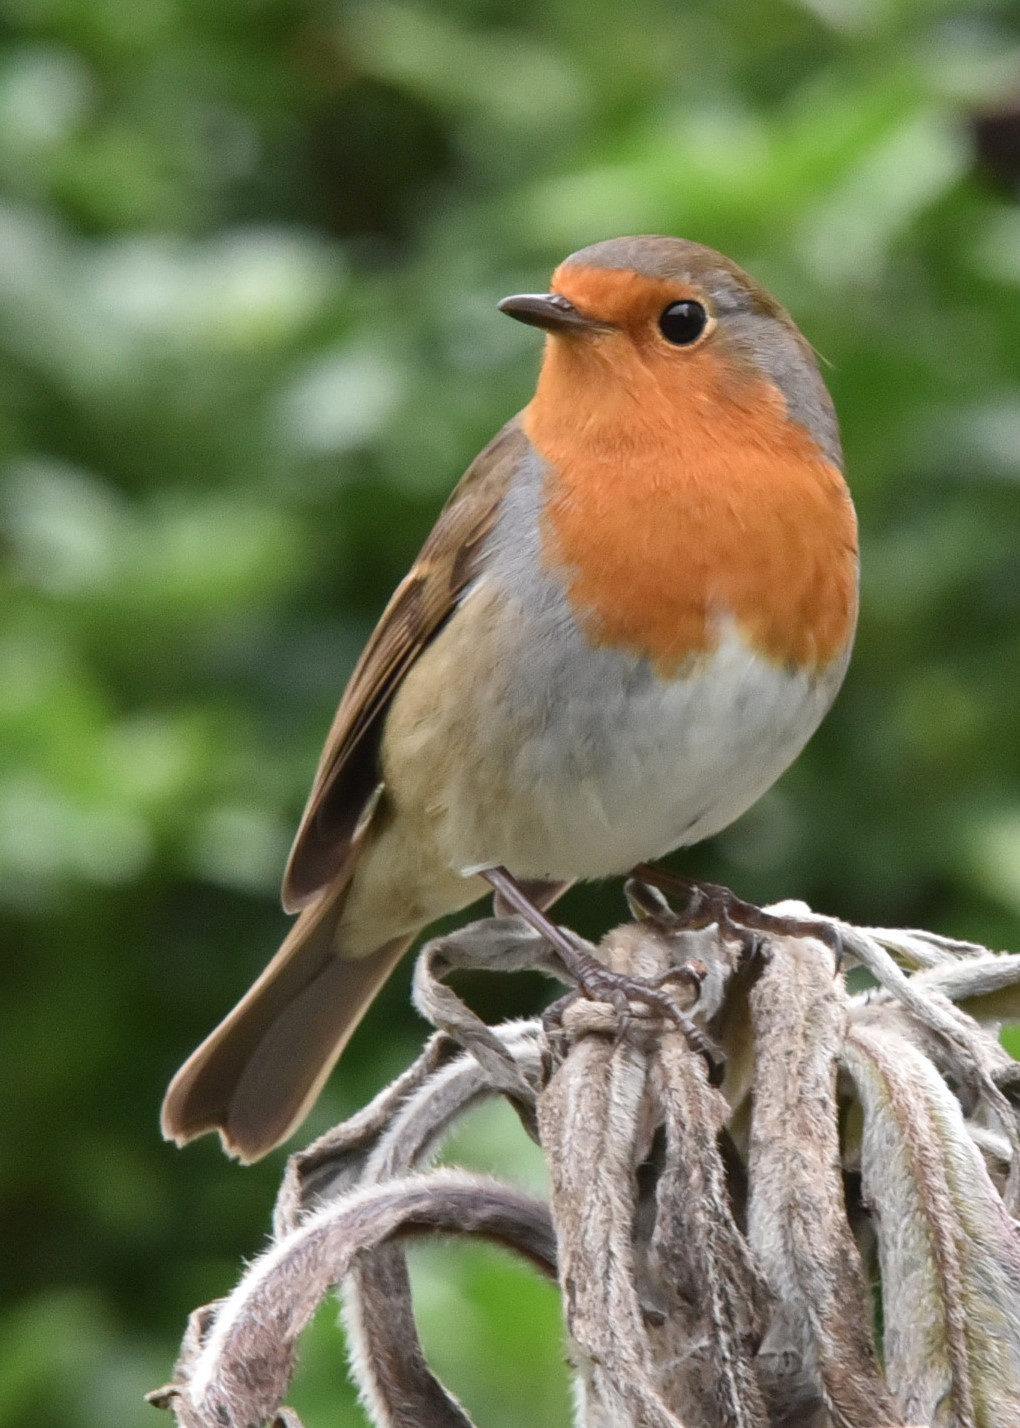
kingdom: Animalia
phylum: Chordata
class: Aves
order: Passeriformes
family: Muscicapidae
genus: Erithacus
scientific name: Erithacus rubecula
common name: European robin
